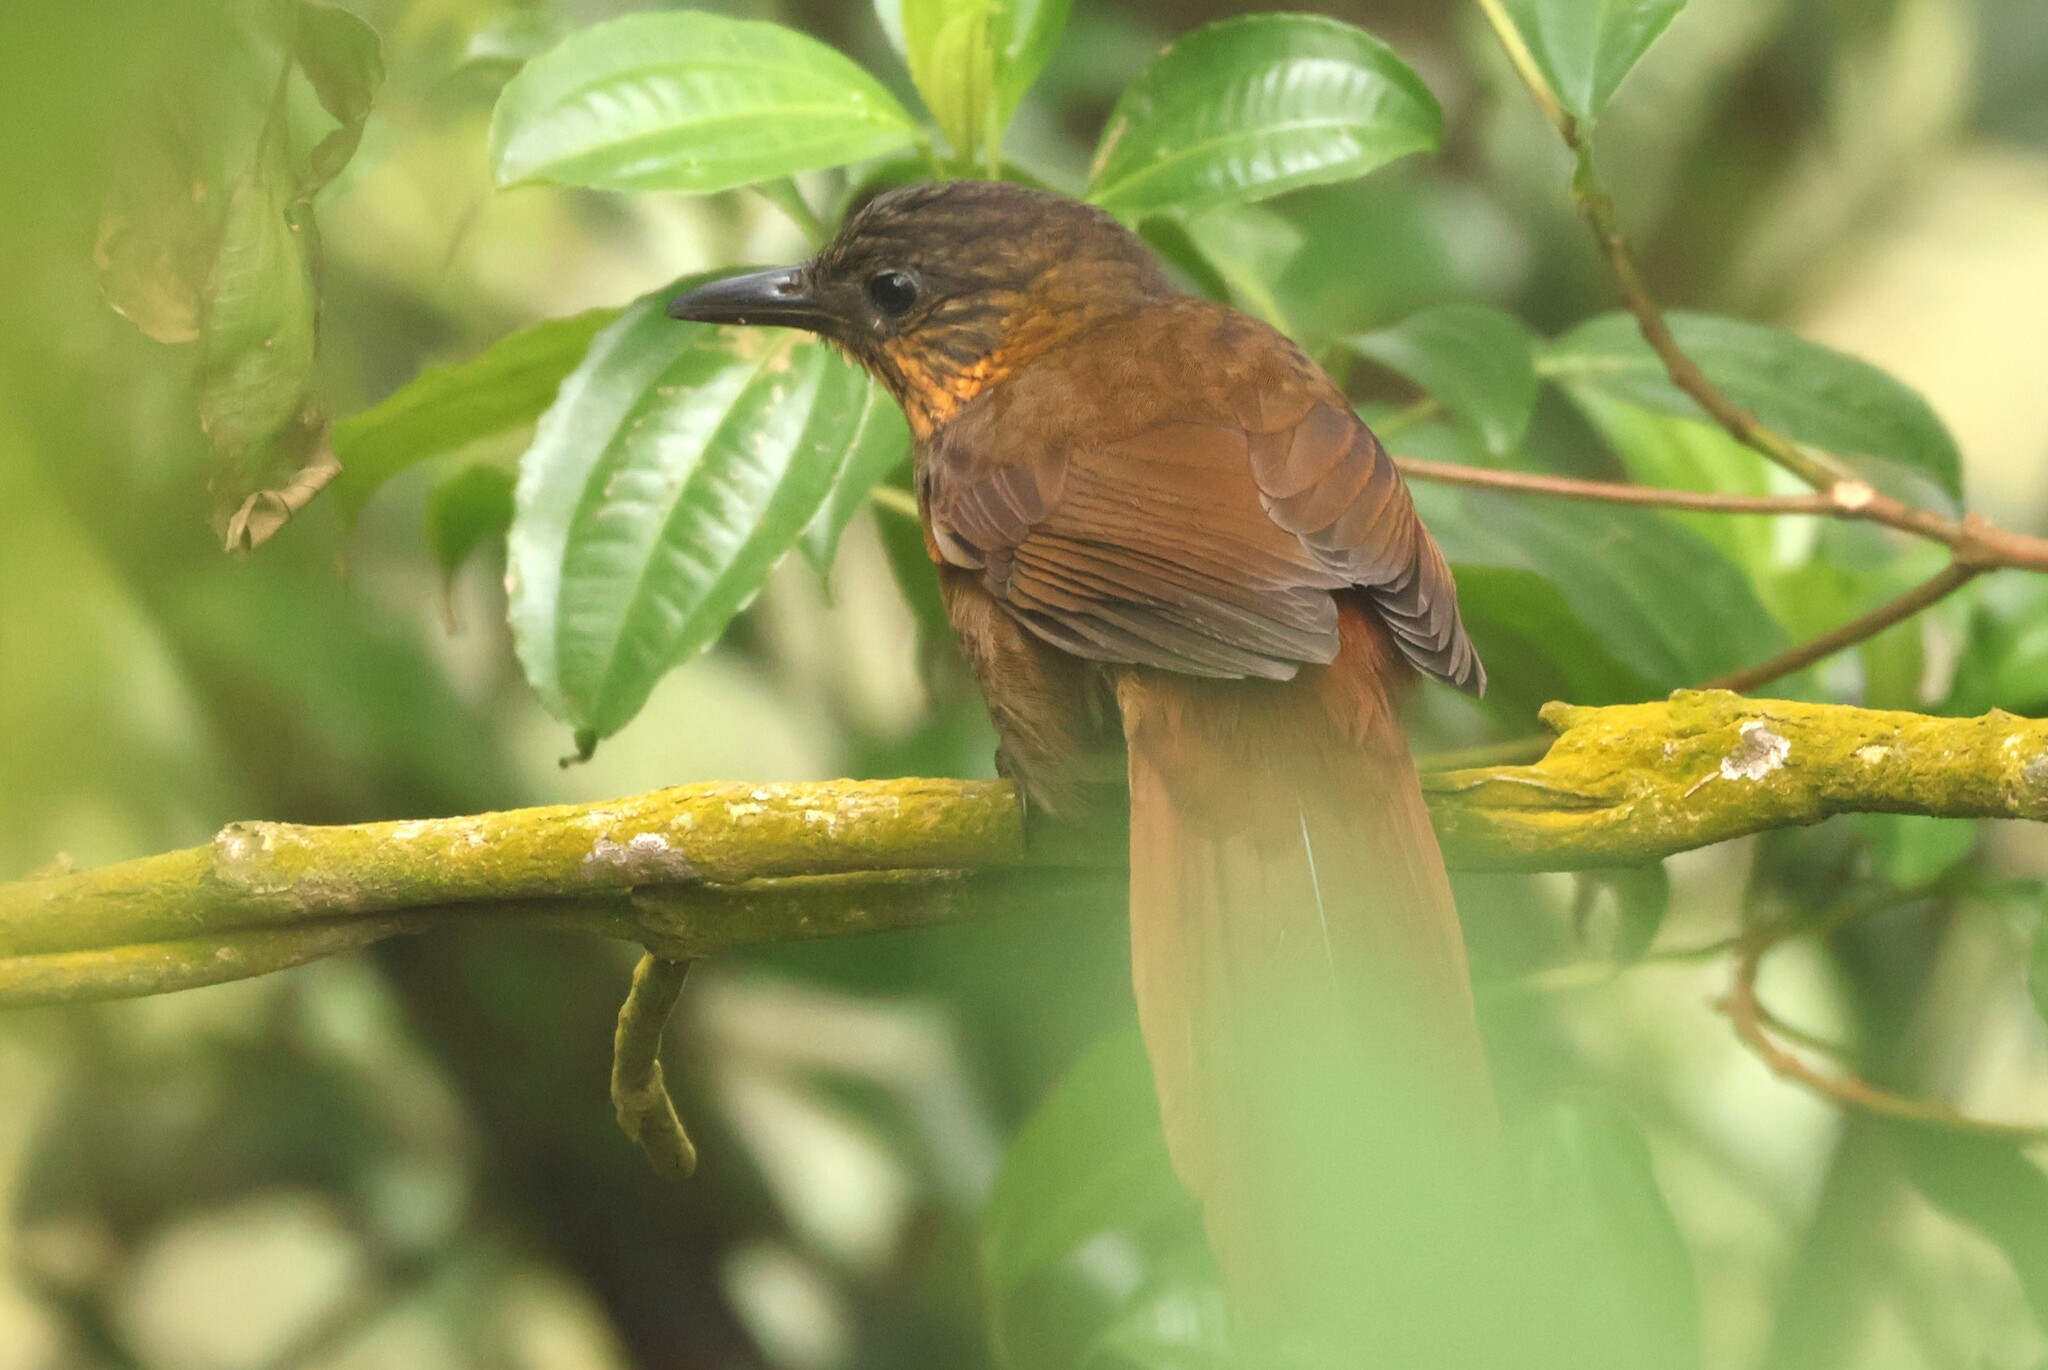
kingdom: Animalia
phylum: Chordata
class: Aves
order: Passeriformes
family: Furnariidae
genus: Thripadectes
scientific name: Thripadectes rufobrunneus
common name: Streak-breasted treehunter
